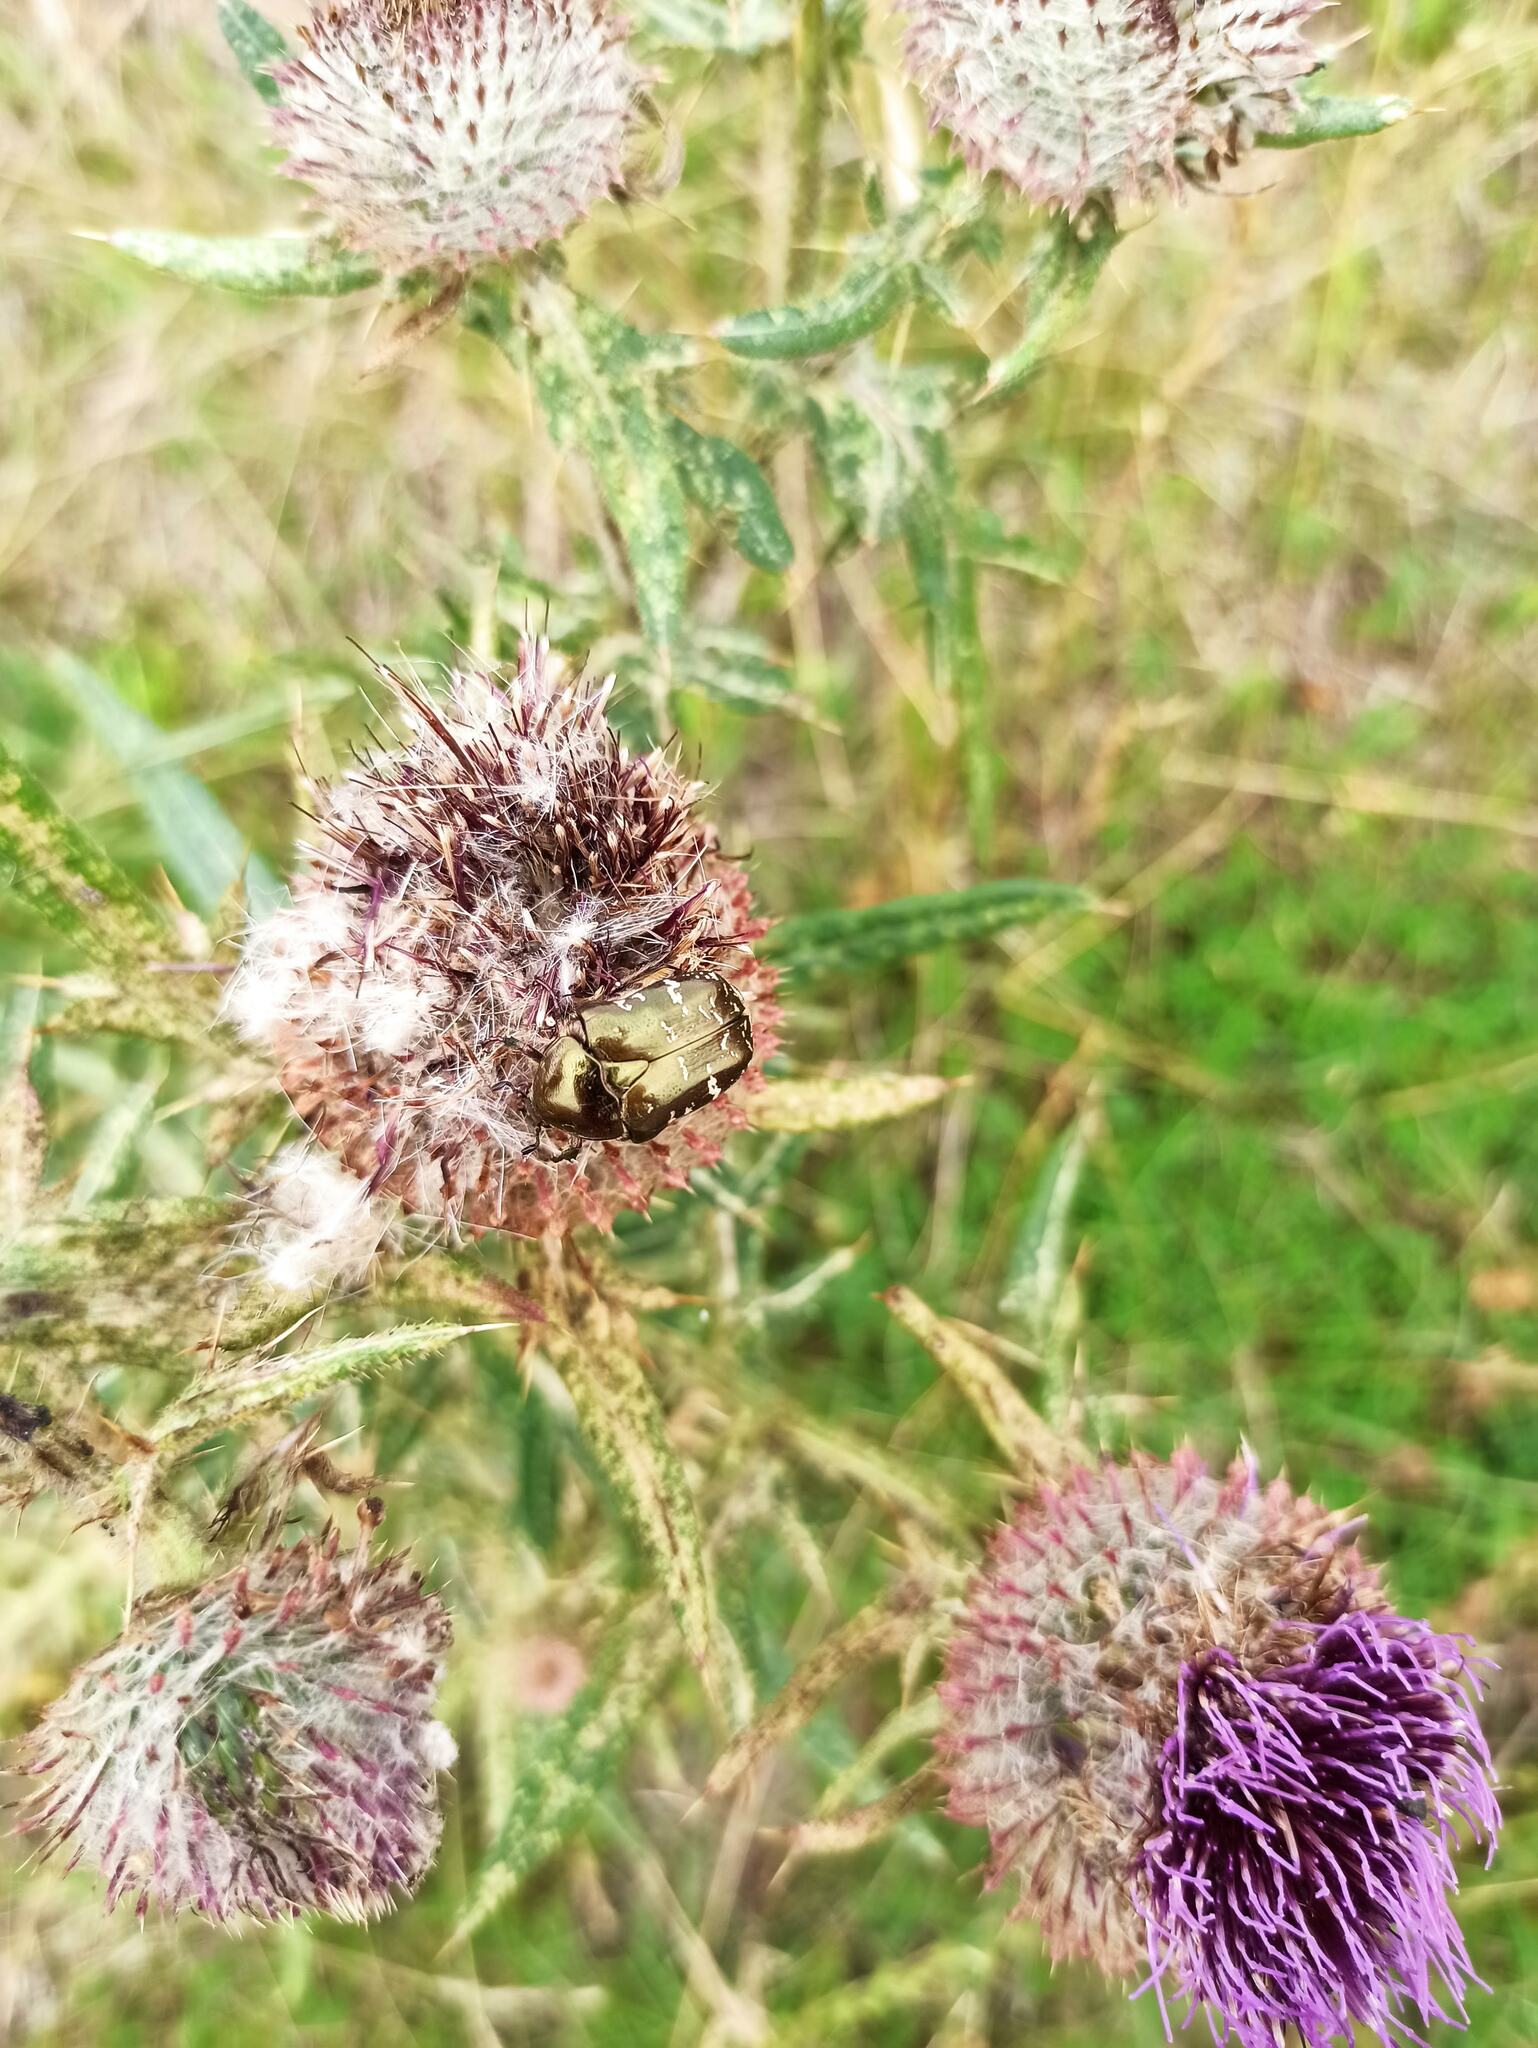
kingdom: Animalia
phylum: Arthropoda
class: Insecta
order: Coleoptera
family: Scarabaeidae
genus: Protaetia
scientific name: Protaetia cuprea
